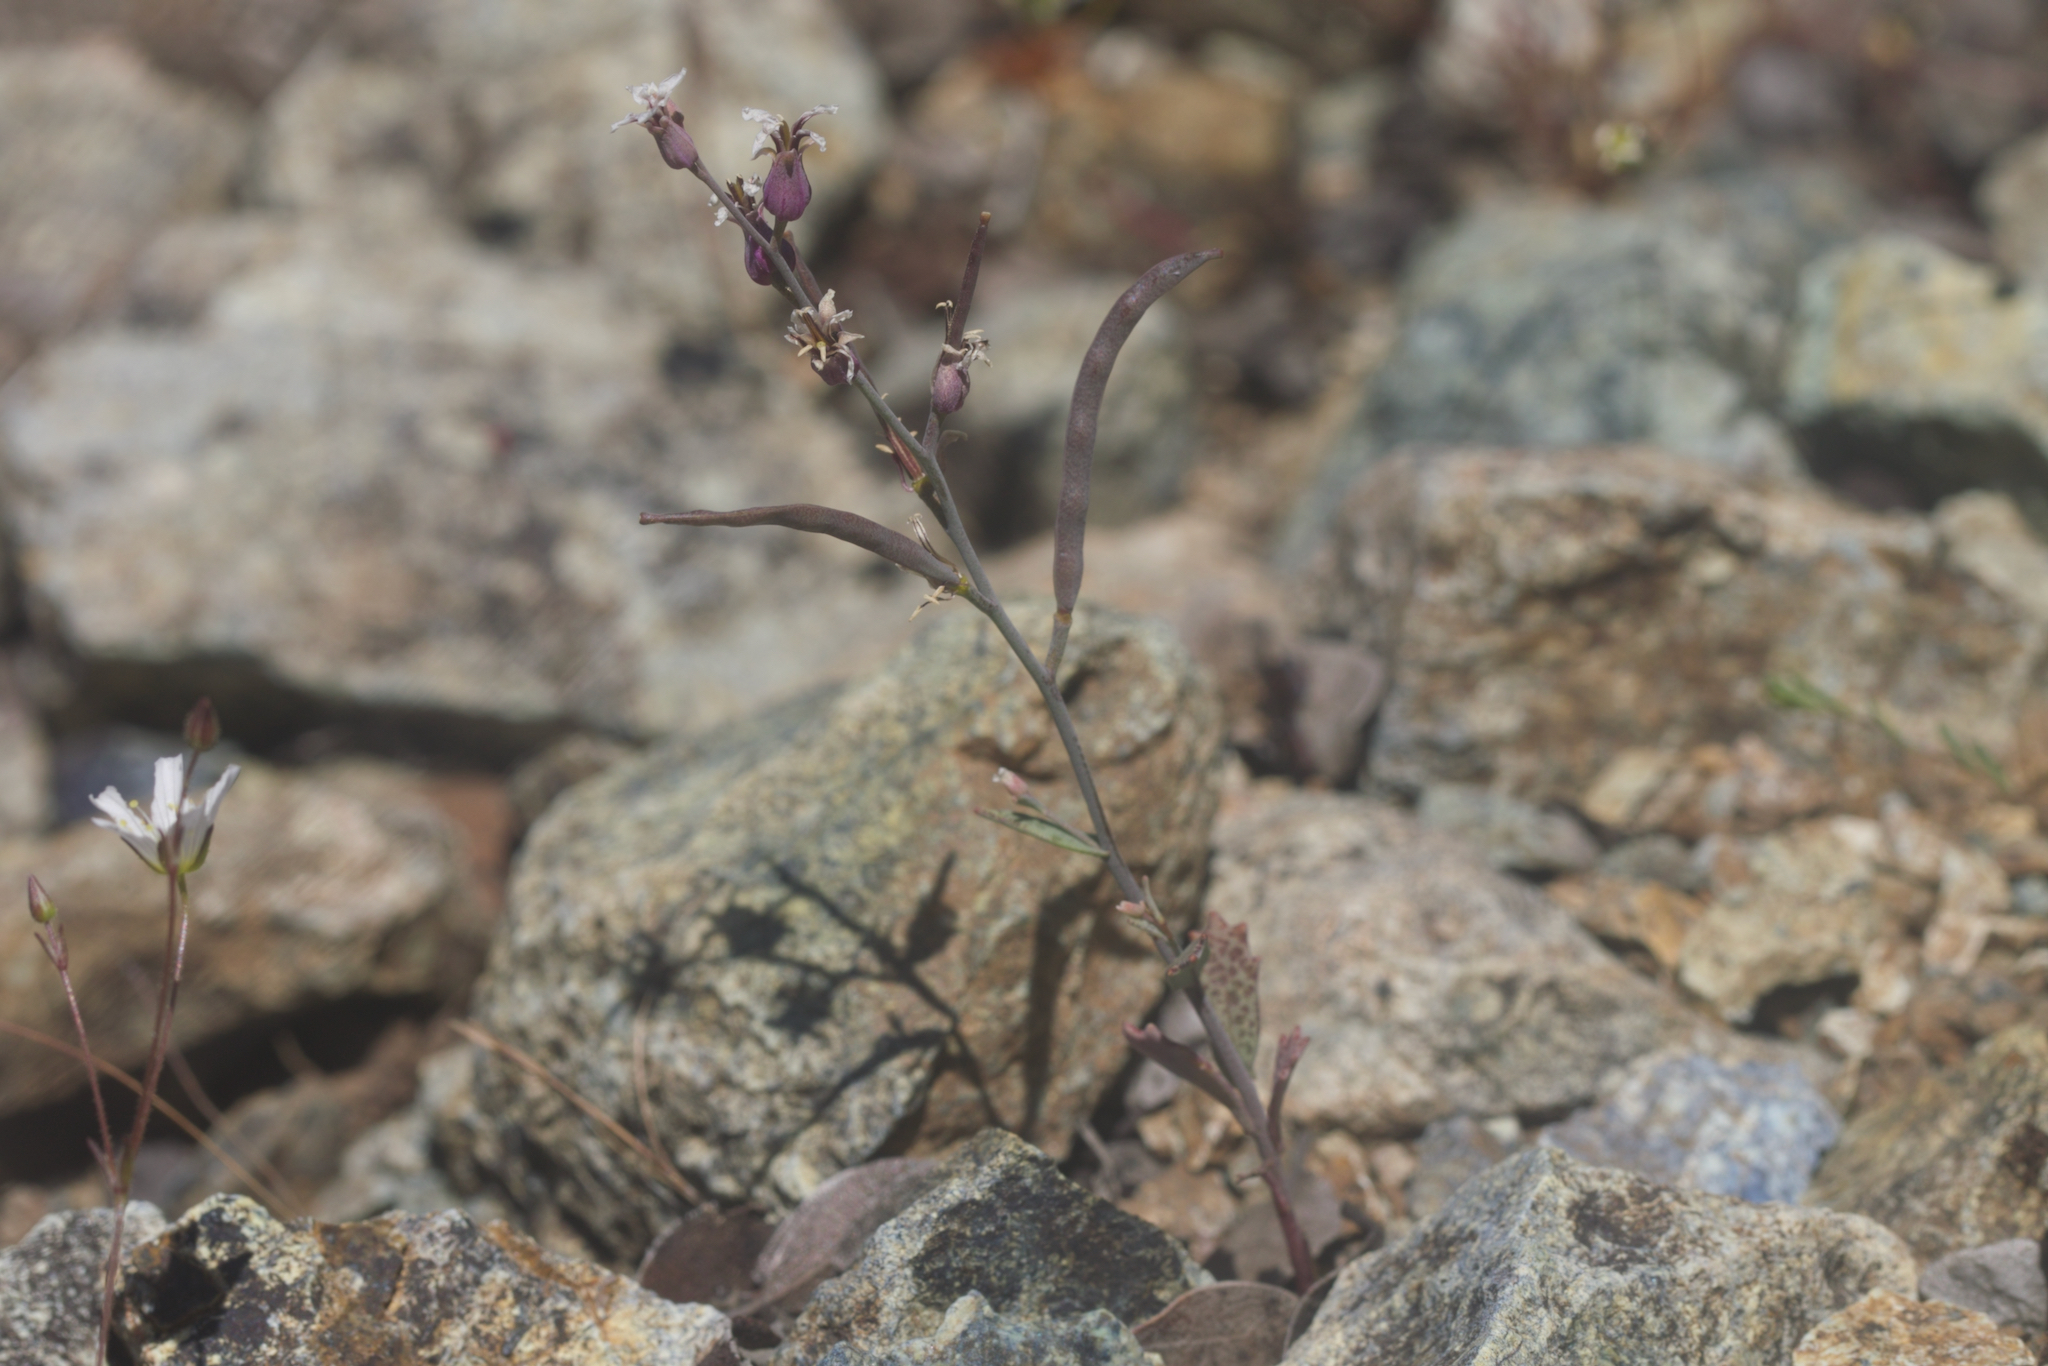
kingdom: Plantae
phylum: Tracheophyta
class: Magnoliopsida
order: Brassicales
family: Brassicaceae
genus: Streptanthus
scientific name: Streptanthus batrachopus
